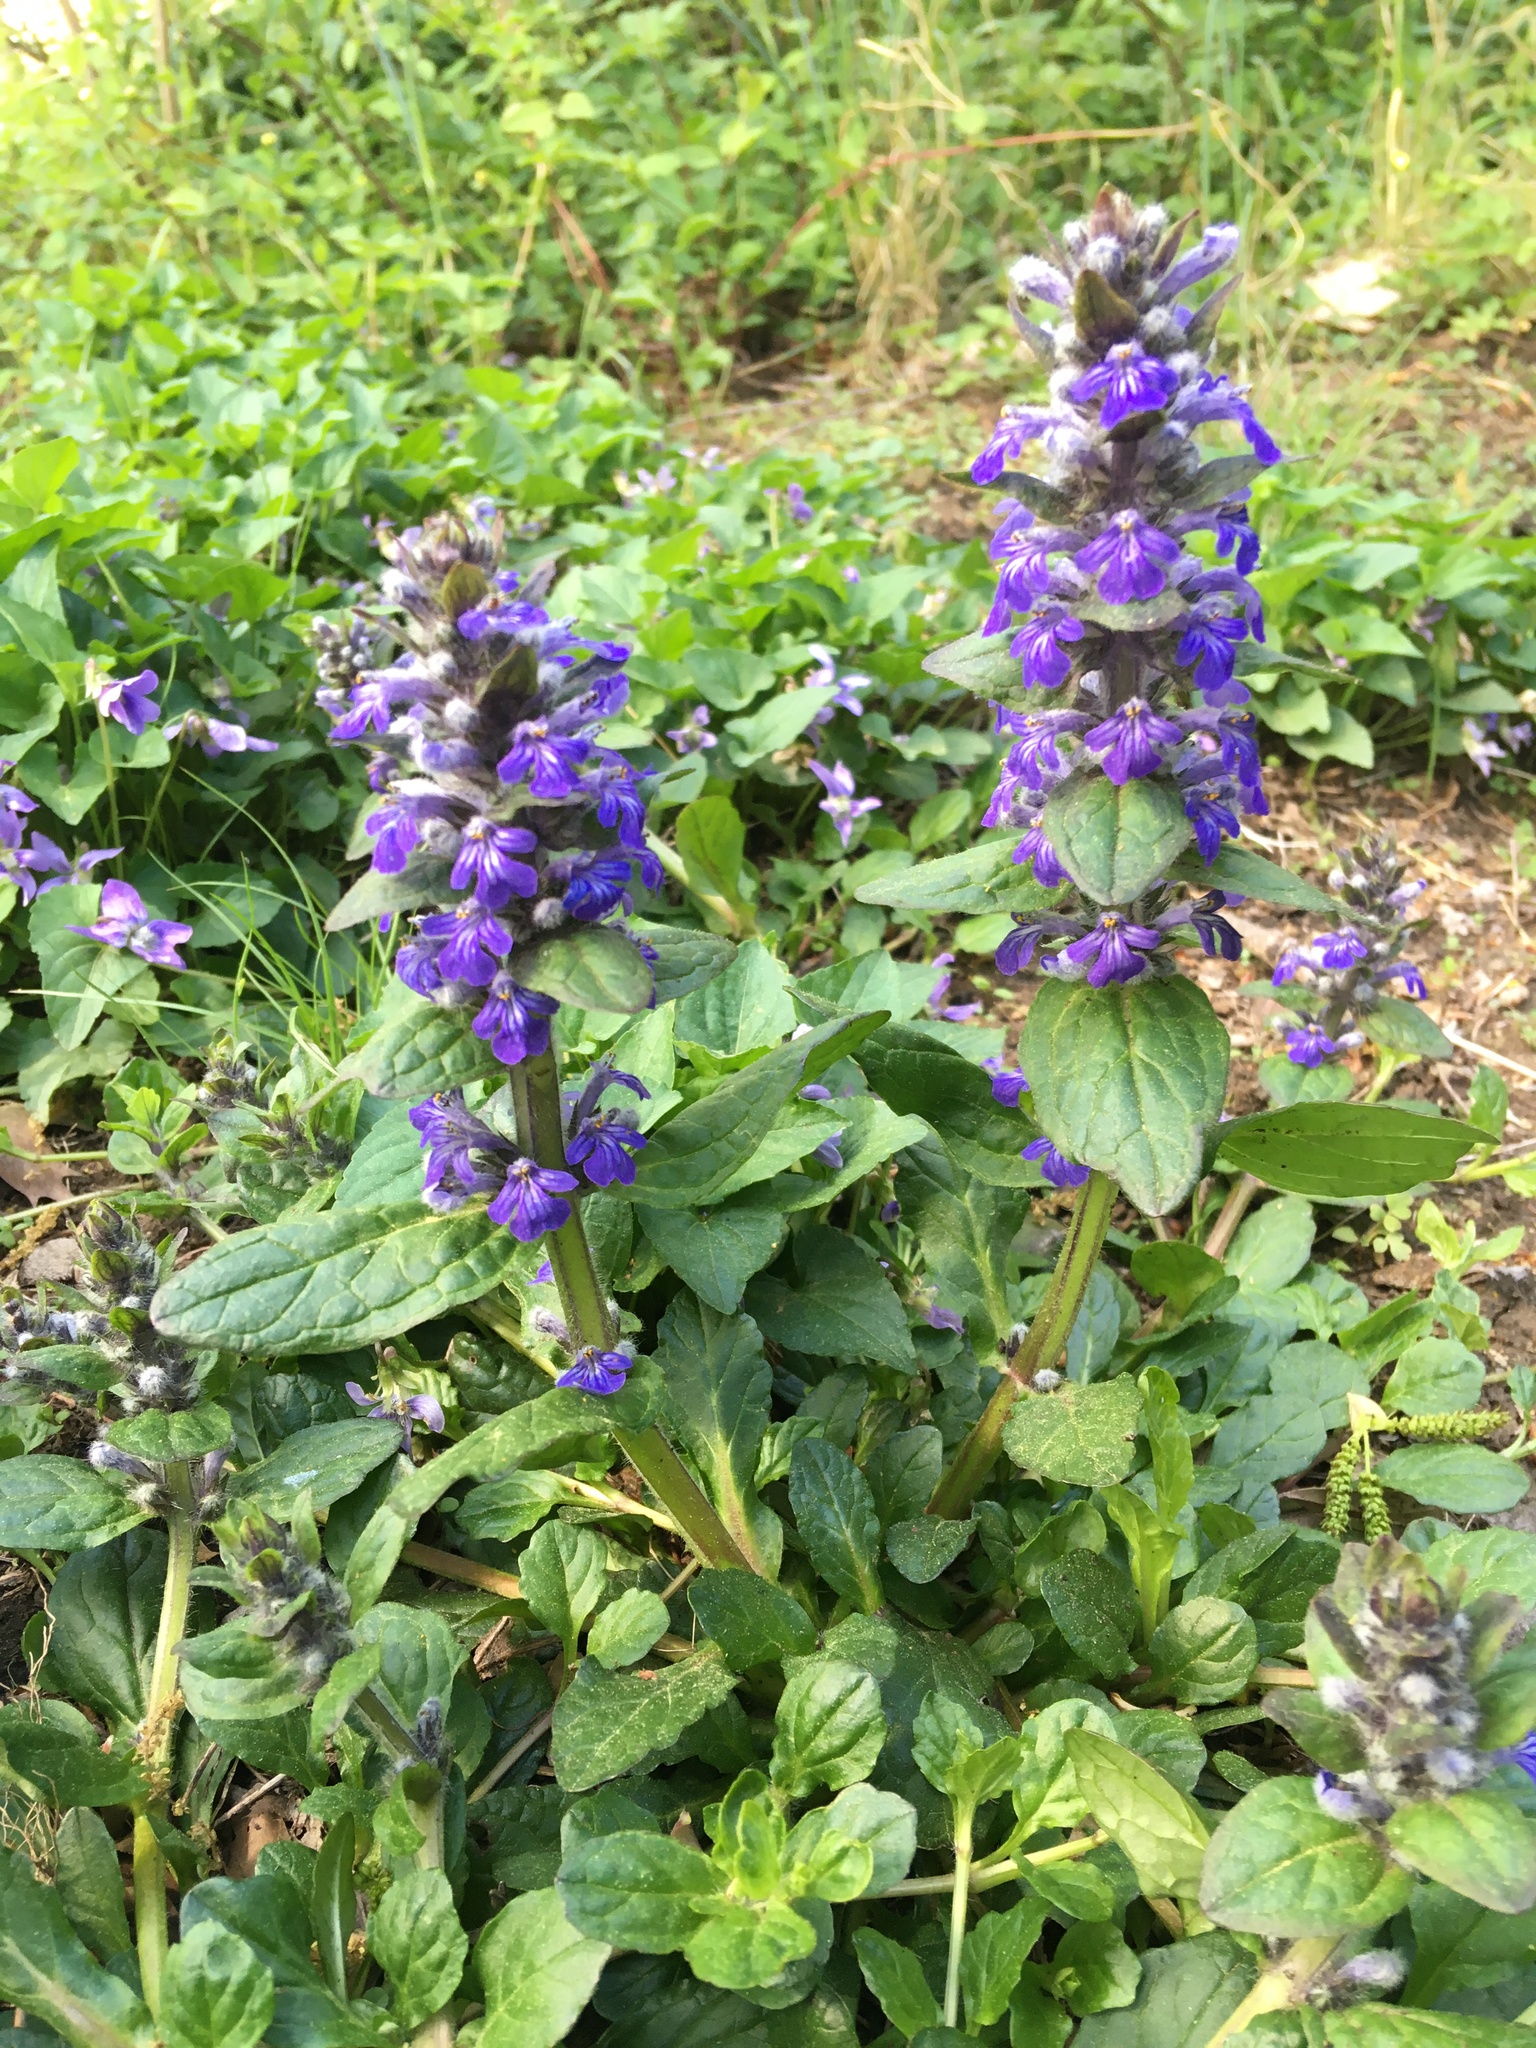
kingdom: Plantae
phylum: Tracheophyta
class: Magnoliopsida
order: Lamiales
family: Lamiaceae
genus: Ajuga
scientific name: Ajuga reptans
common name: Bugle
